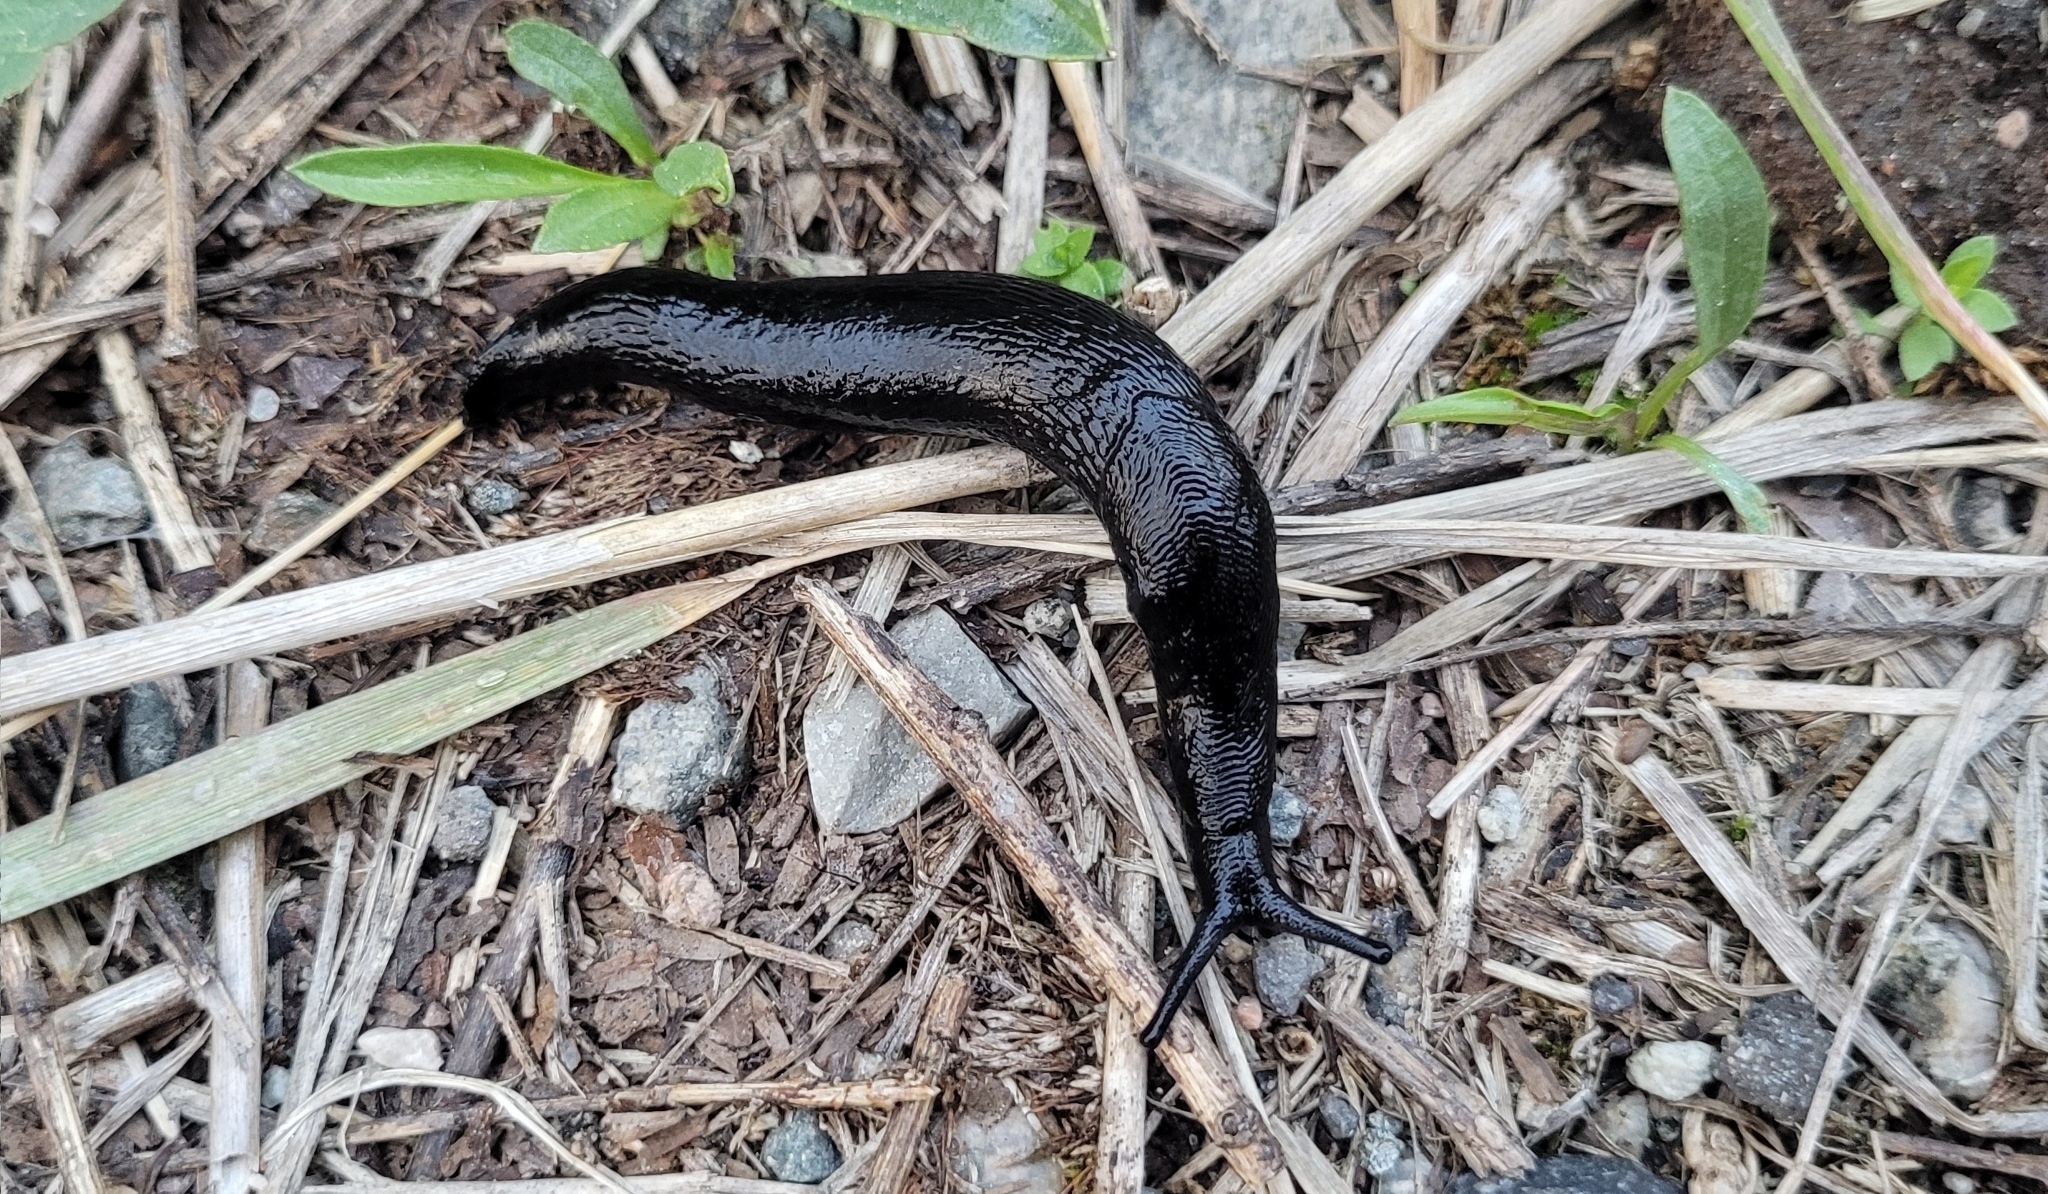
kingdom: Animalia
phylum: Mollusca
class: Gastropoda
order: Stylommatophora
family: Limacidae
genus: Turcomilax
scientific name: Turcomilax turkestanus
